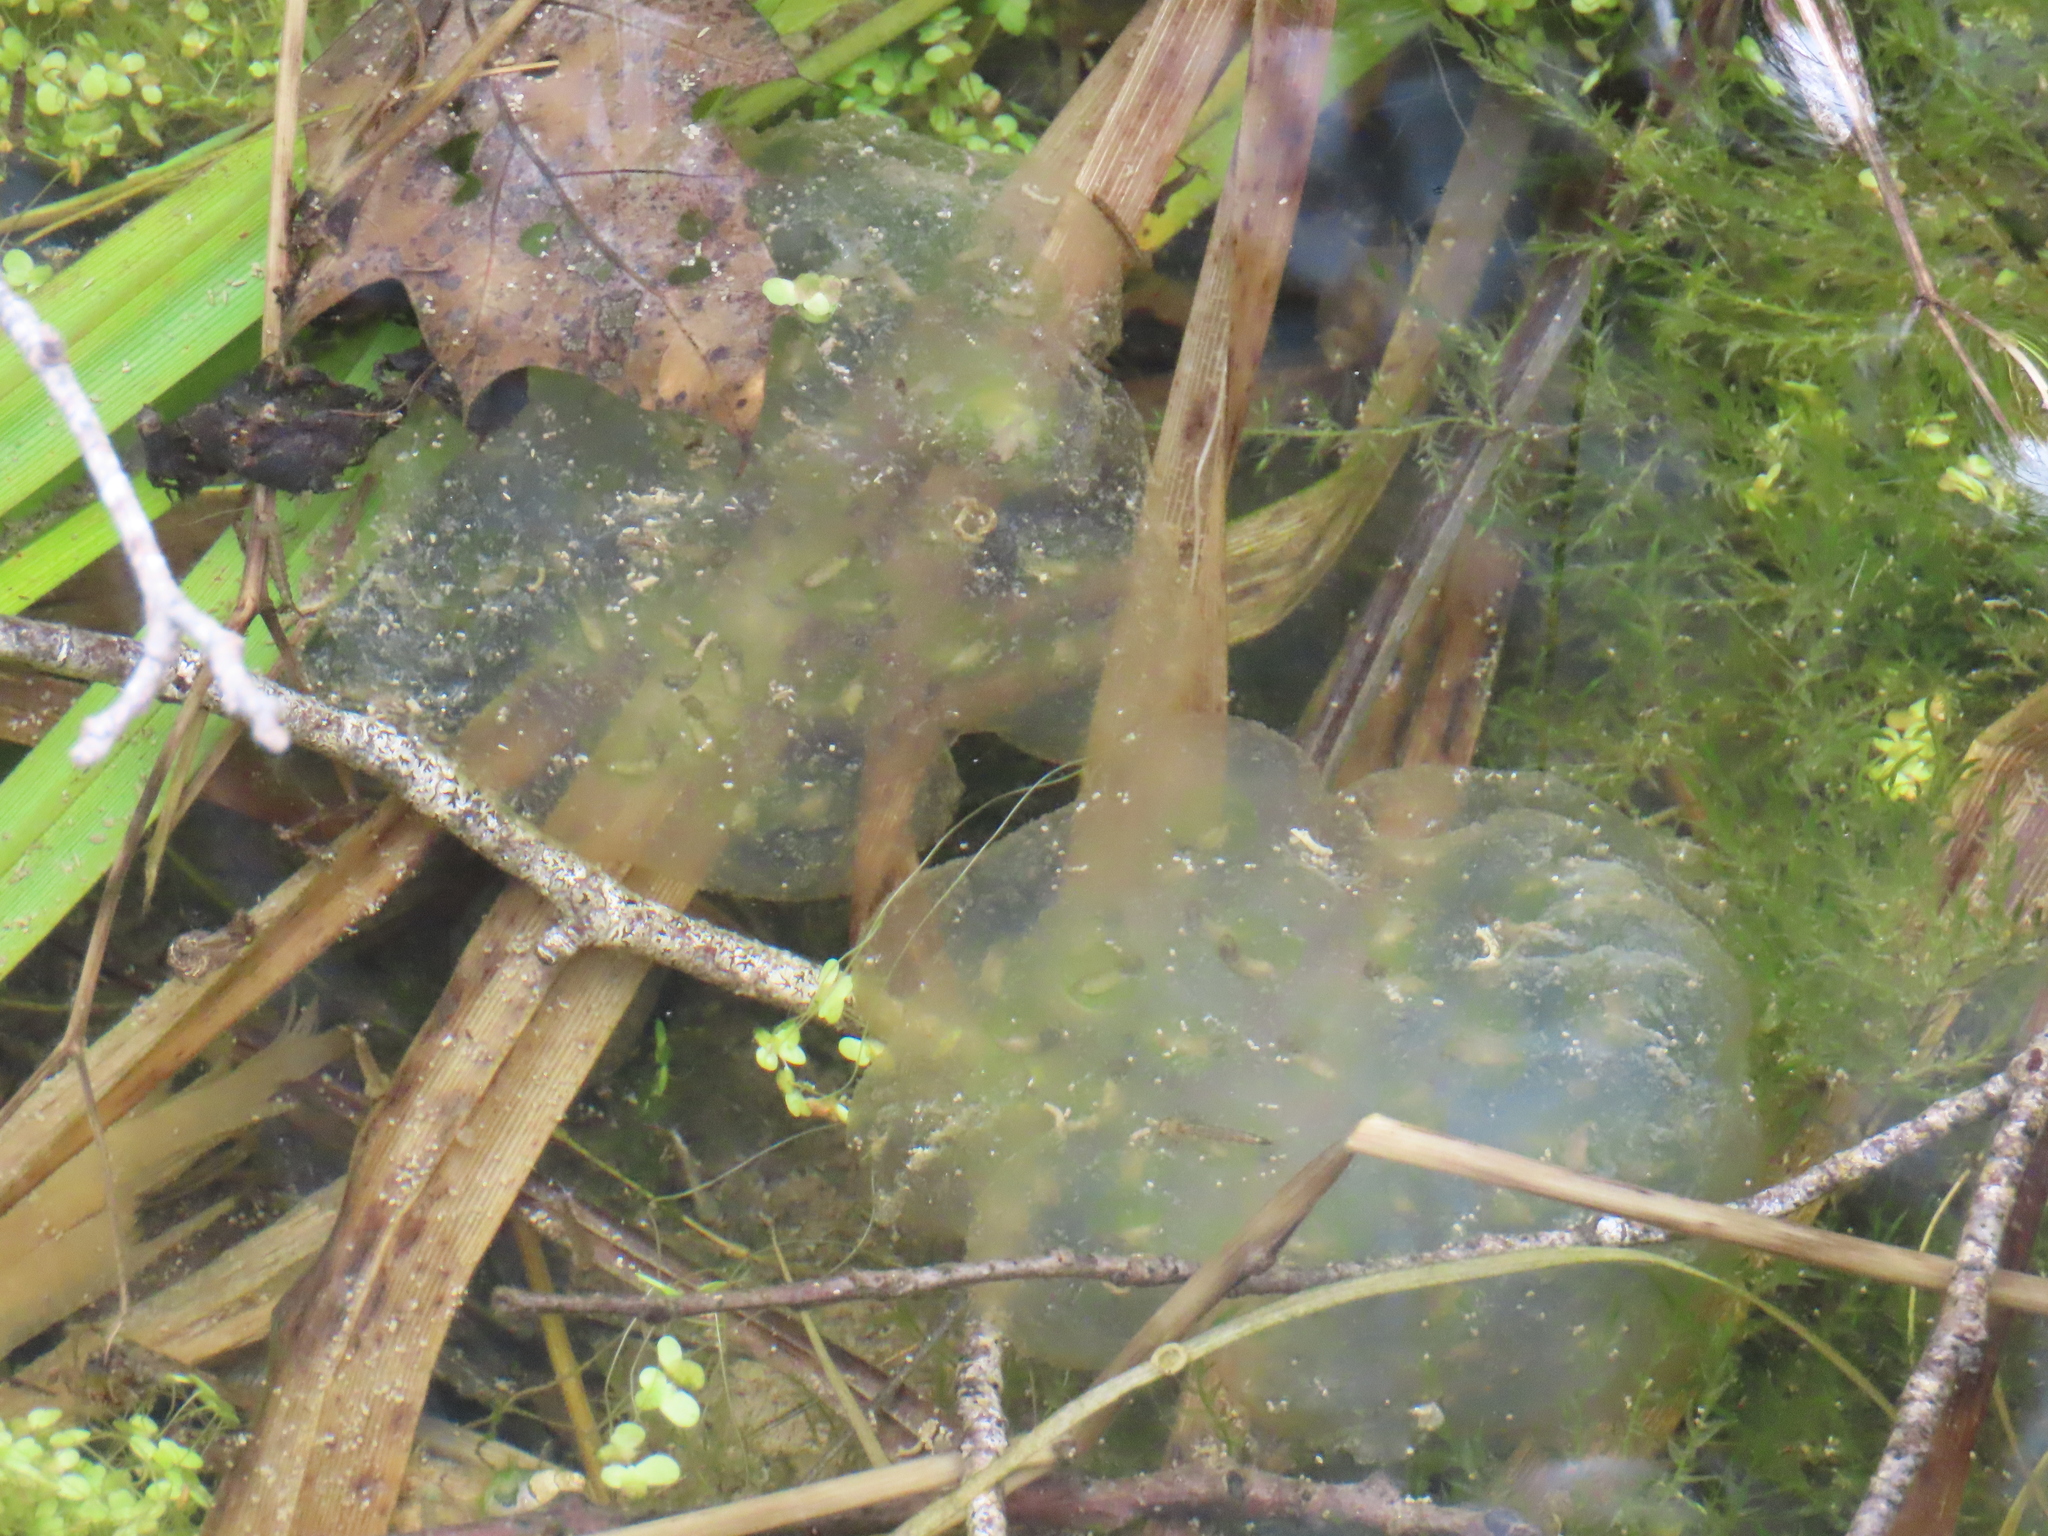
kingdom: Animalia
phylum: Chordata
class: Amphibia
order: Caudata
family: Ambystomatidae
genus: Ambystoma
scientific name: Ambystoma maculatum
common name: Spotted salamander
